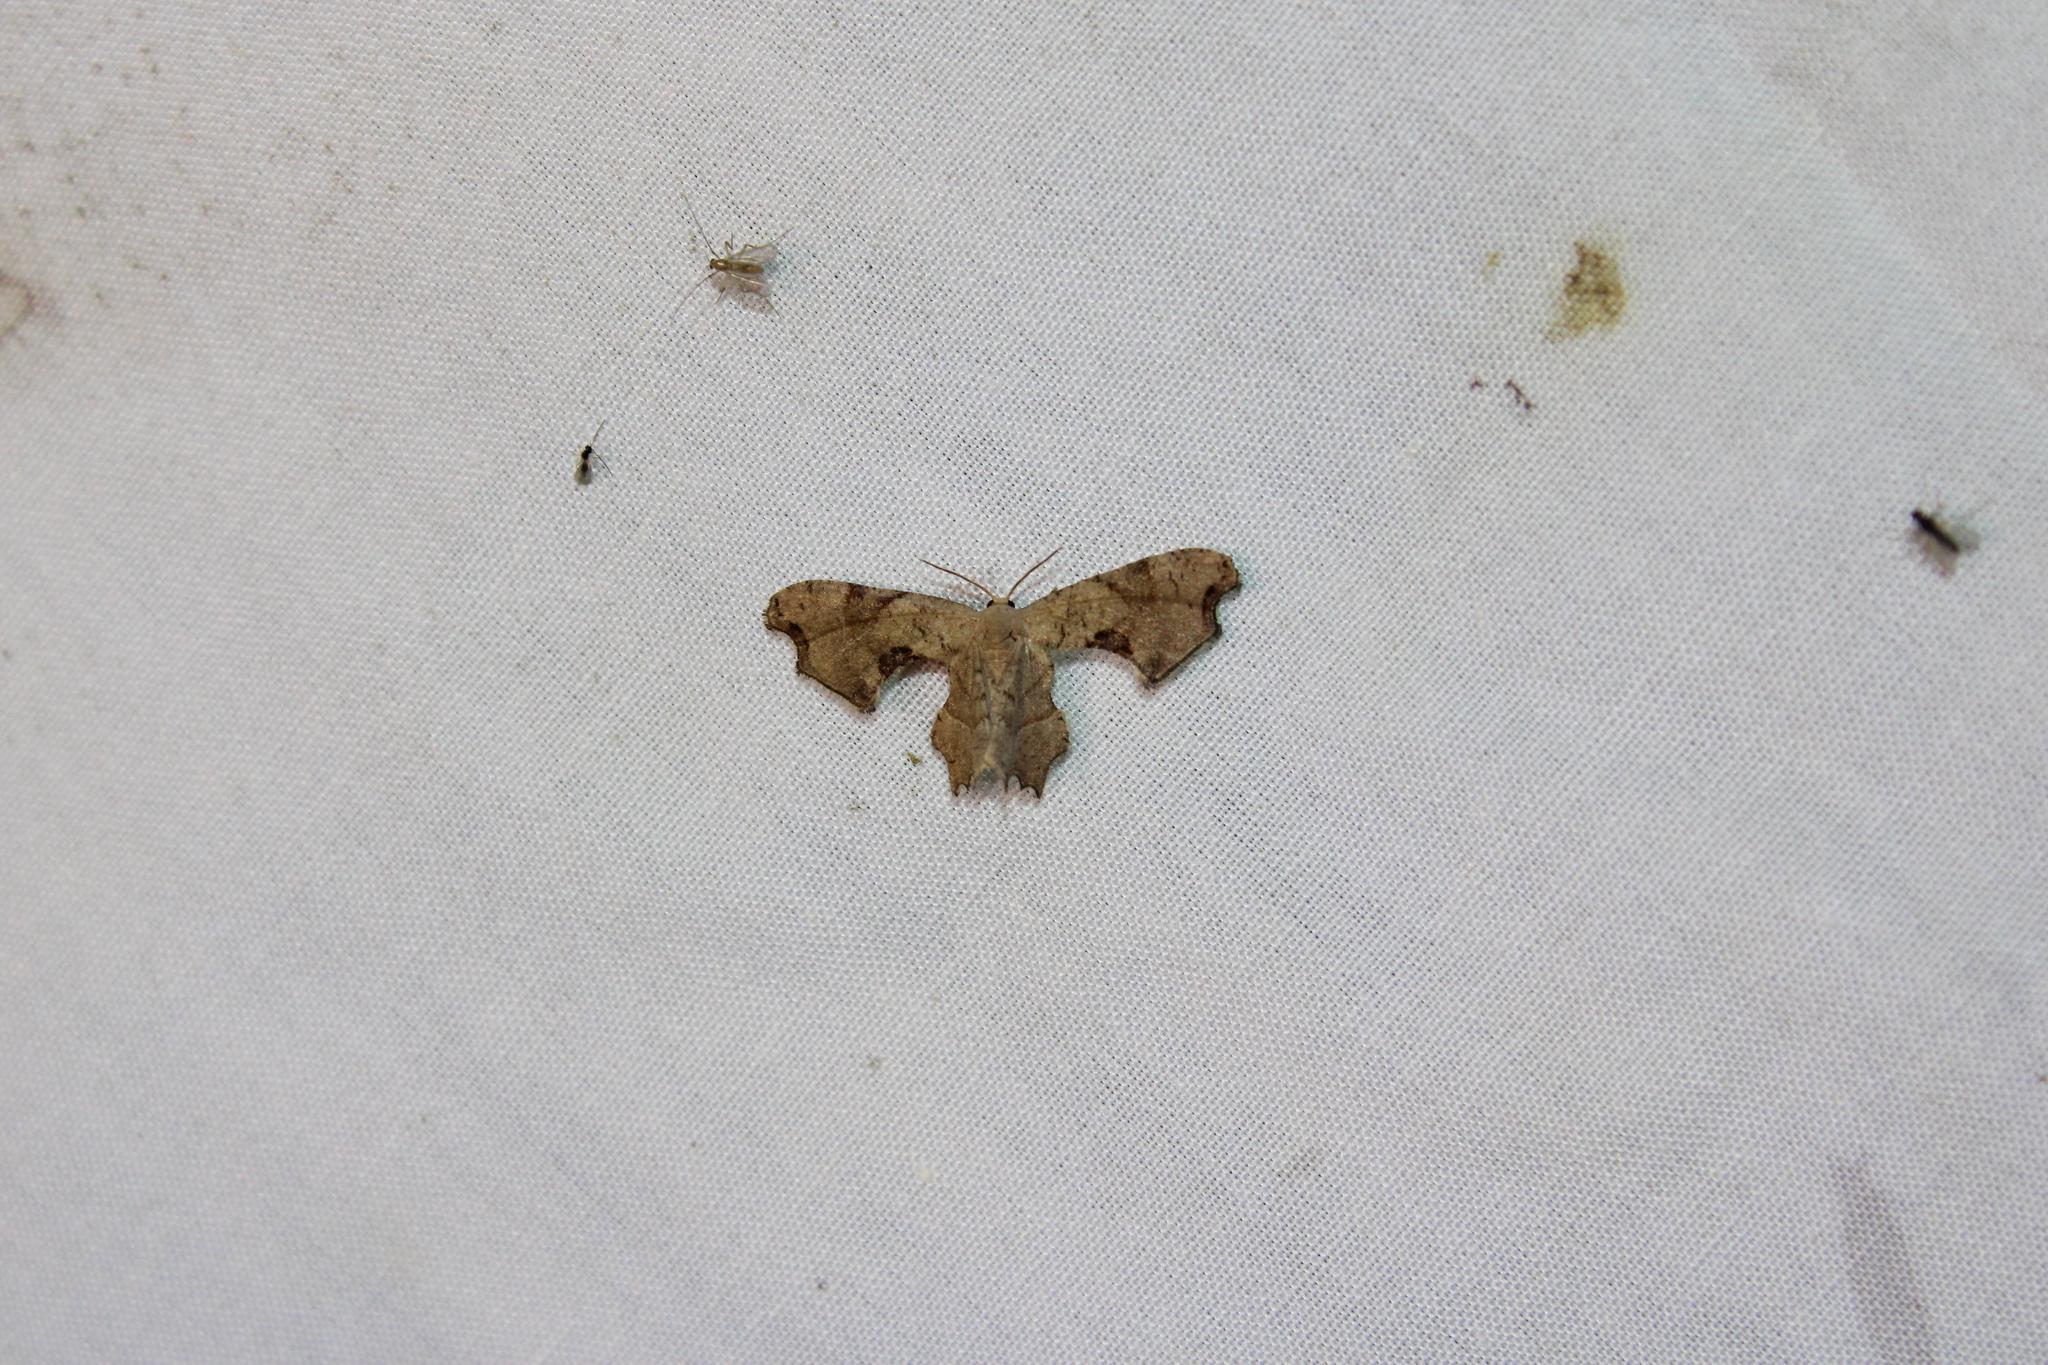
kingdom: Animalia
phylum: Arthropoda
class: Insecta
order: Lepidoptera
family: Uraniidae
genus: Epiplema
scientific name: Epiplema Calledapteryx dryopterata
